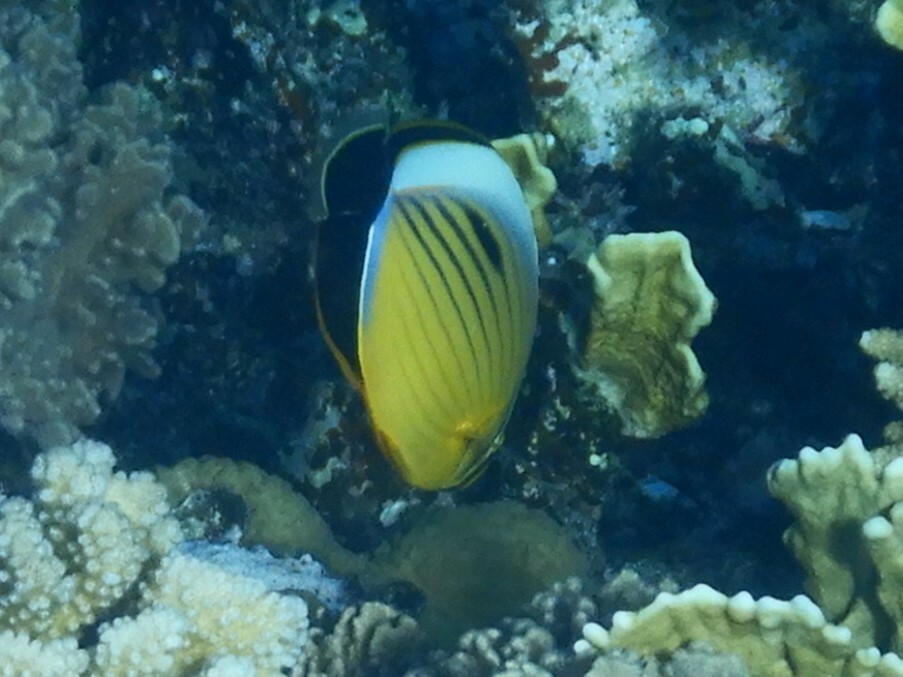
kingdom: Animalia
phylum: Chordata
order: Perciformes
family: Chaetodontidae
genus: Chaetodon
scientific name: Chaetodon austriacus
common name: Exquisite butterflyfish
